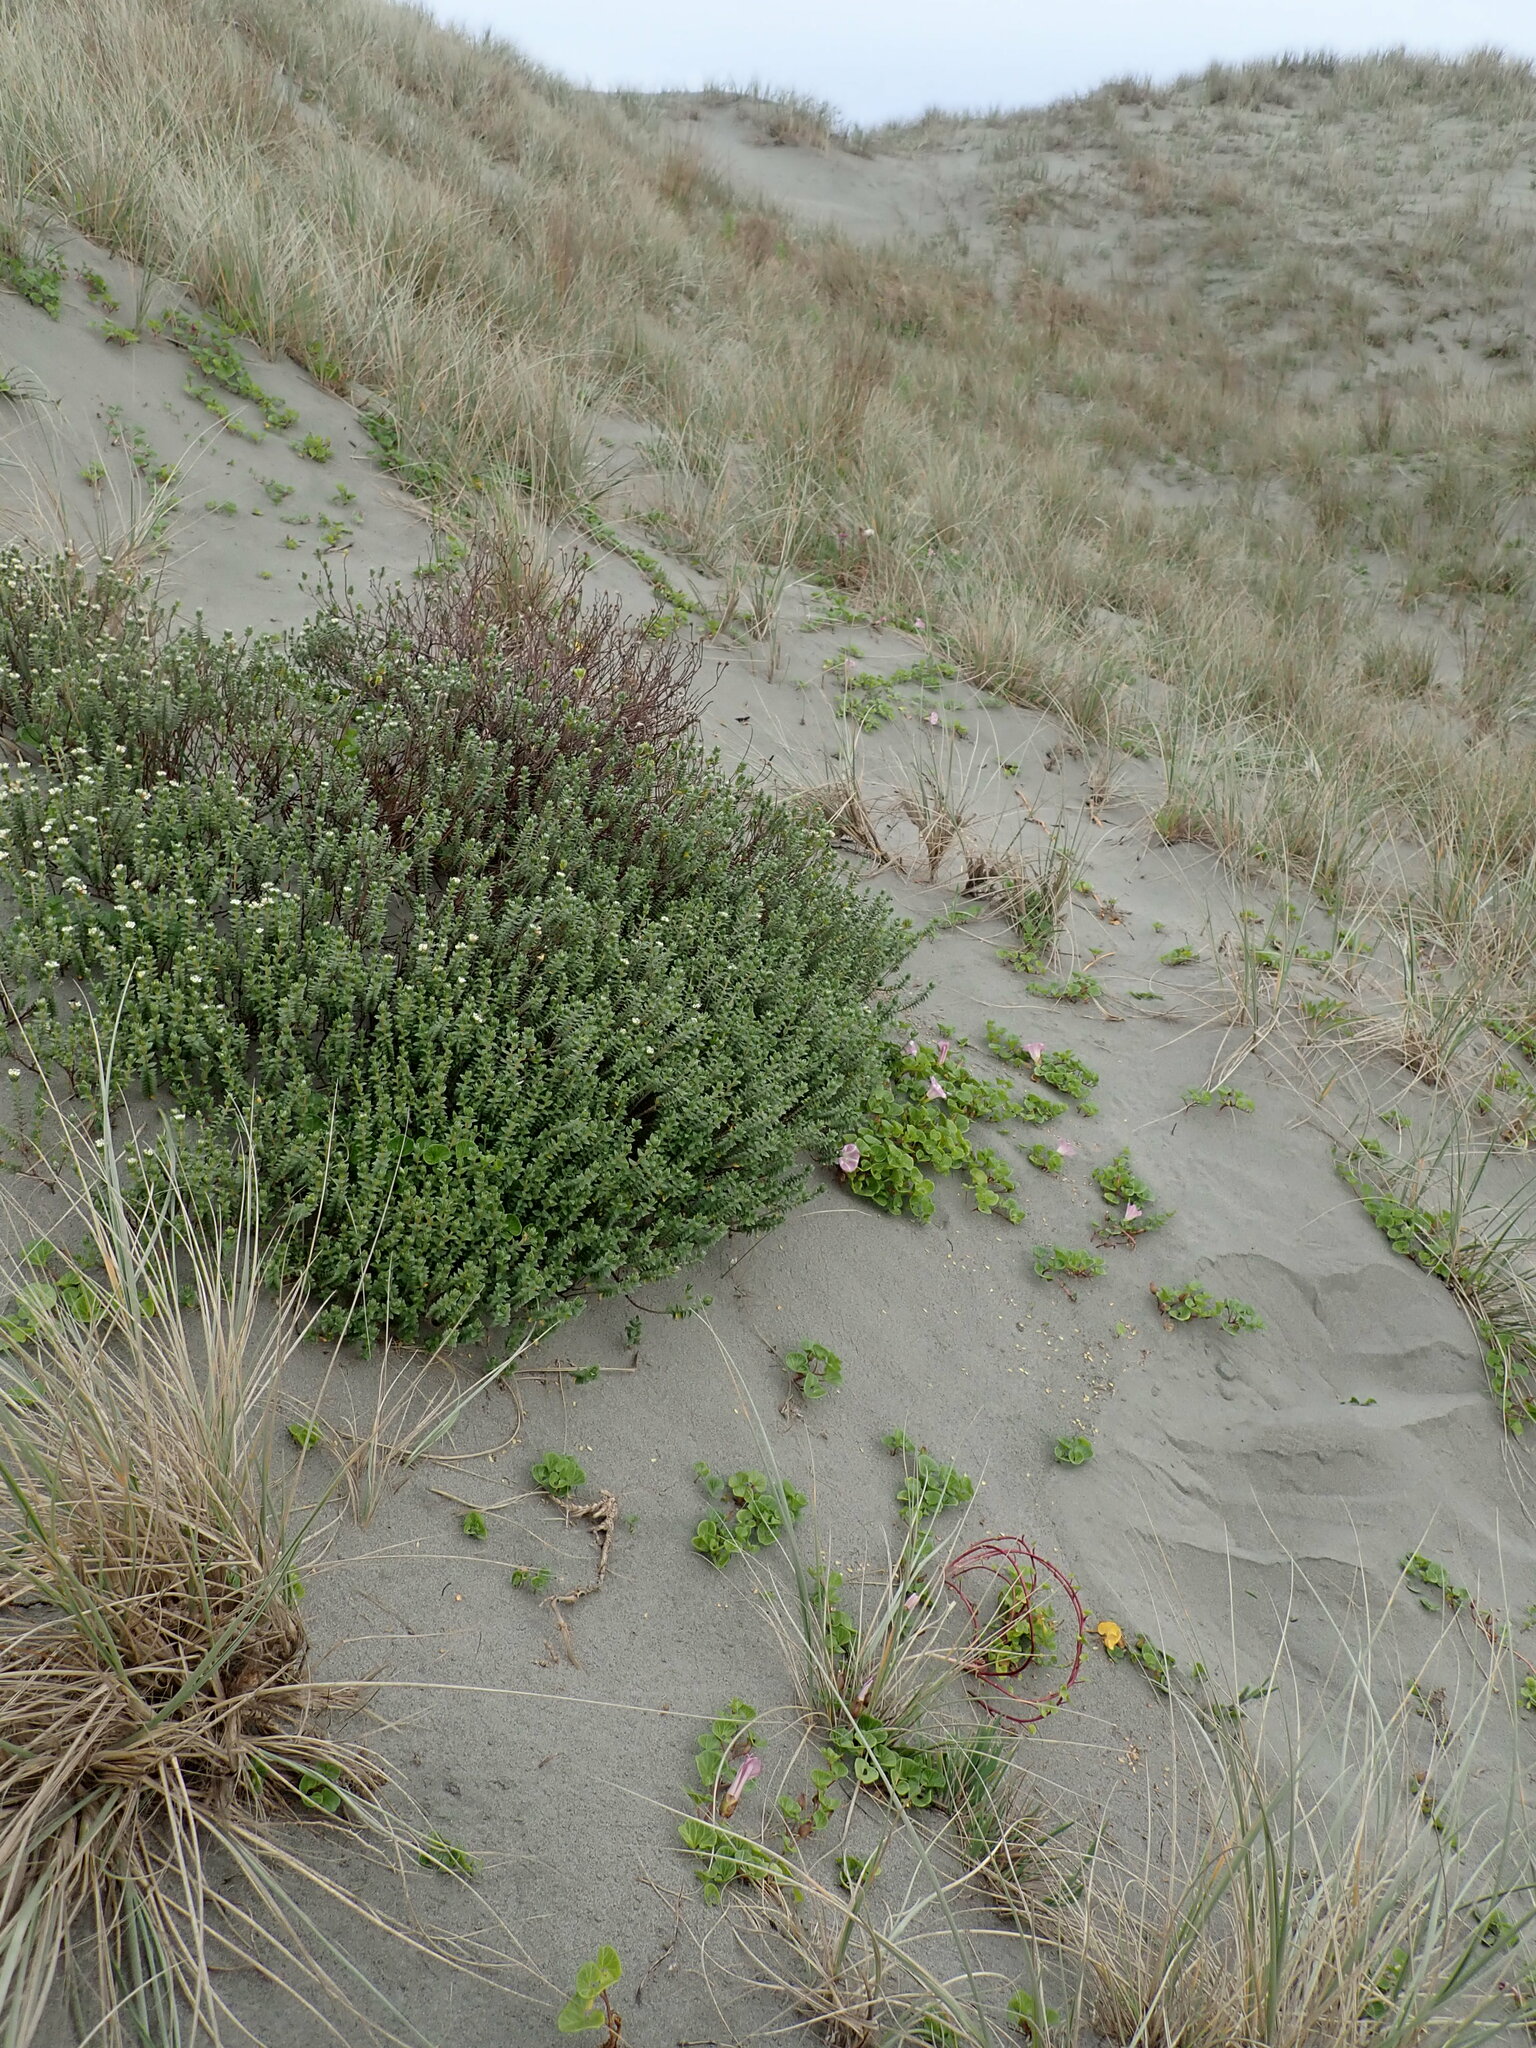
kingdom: Plantae
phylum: Tracheophyta
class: Magnoliopsida
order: Malvales
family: Thymelaeaceae
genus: Pimelea
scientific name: Pimelea villosa
